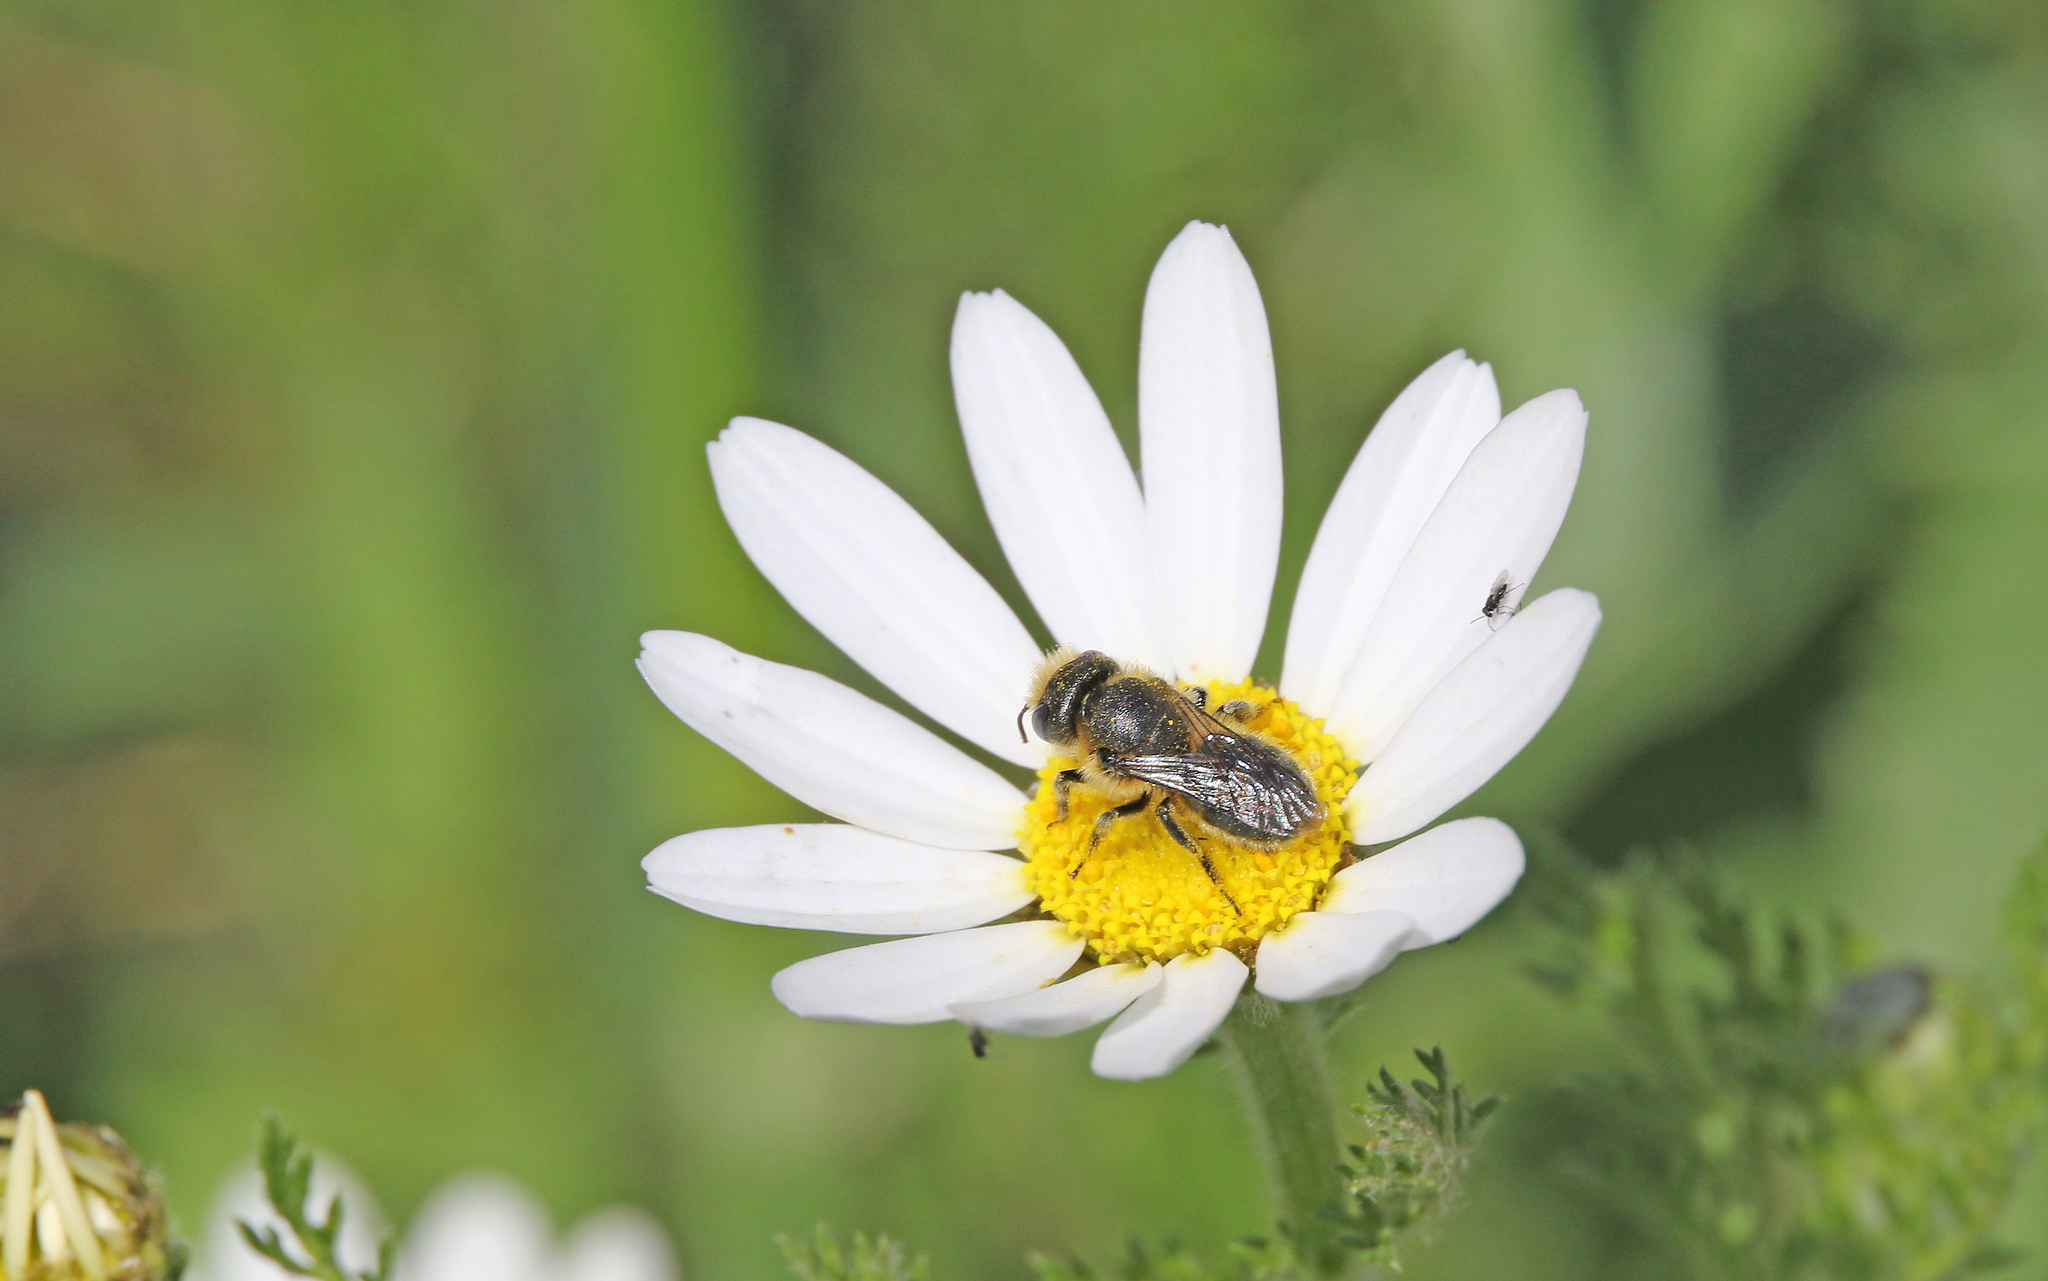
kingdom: Animalia
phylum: Arthropoda
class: Insecta
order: Hymenoptera
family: Megachilidae
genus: Osmia
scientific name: Osmia latreillei
